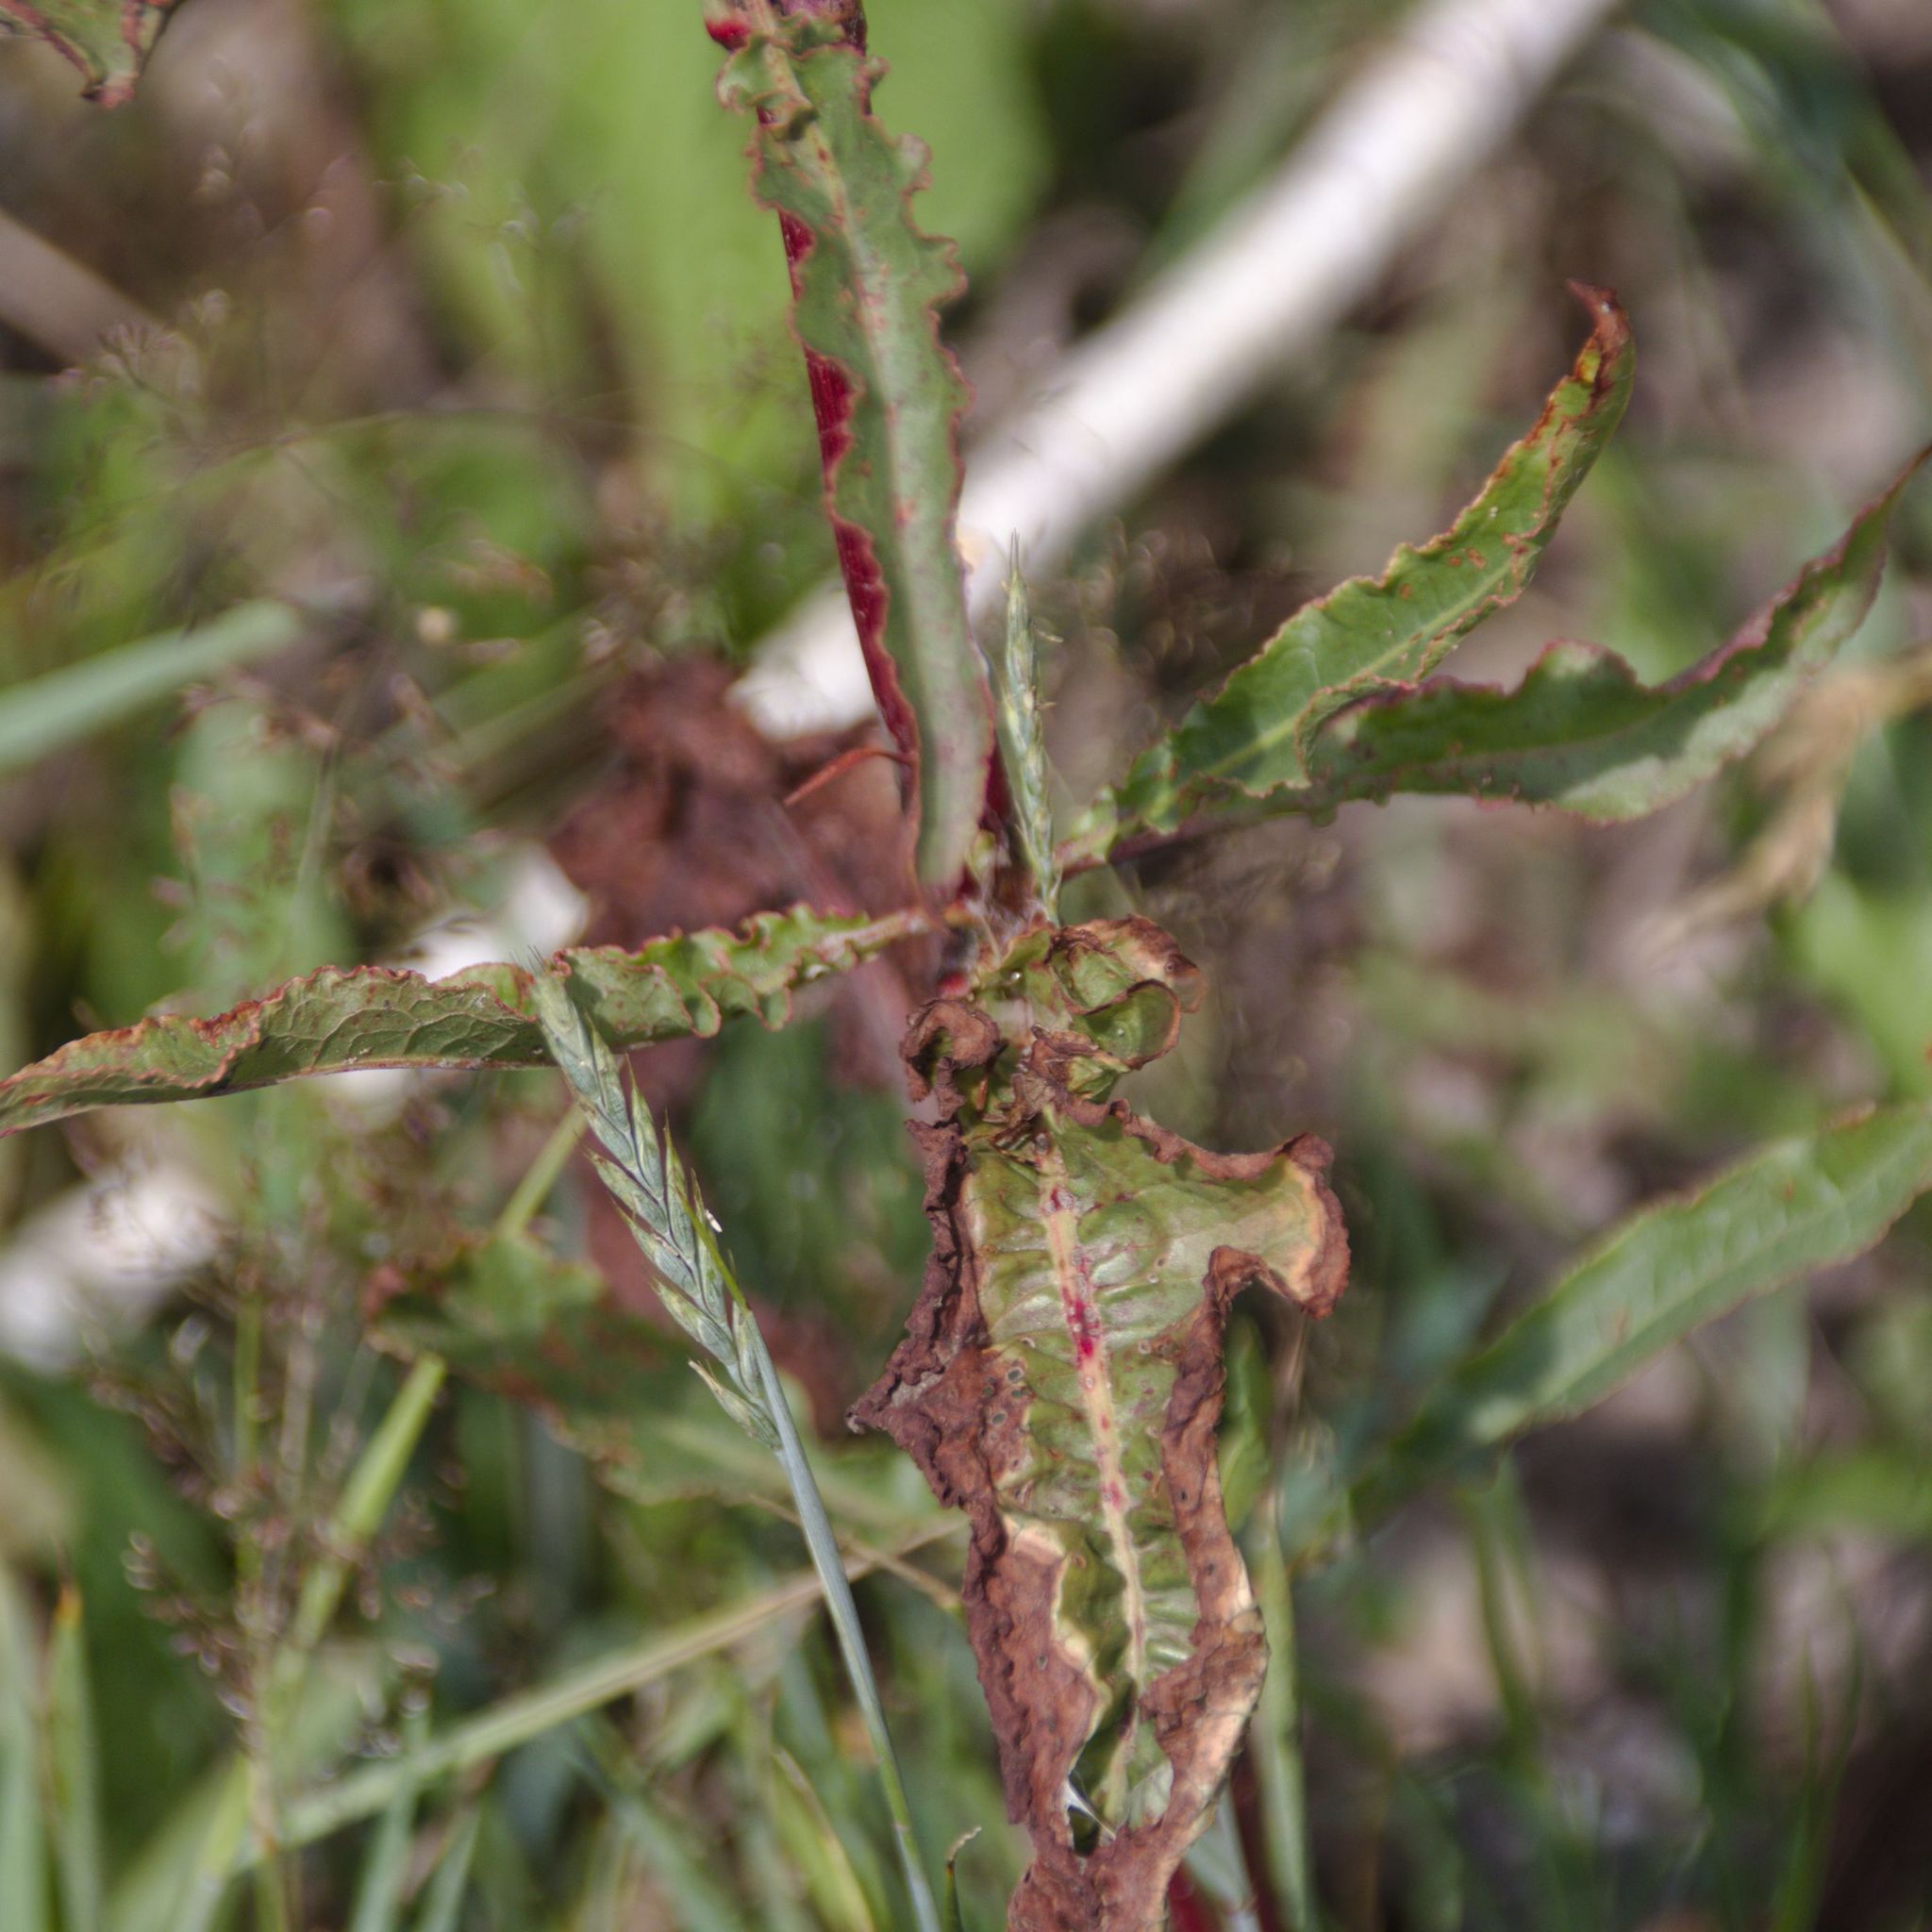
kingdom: Plantae
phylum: Tracheophyta
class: Magnoliopsida
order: Caryophyllales
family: Polygonaceae
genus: Rumex
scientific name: Rumex pseudonatronatus
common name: Field dock
